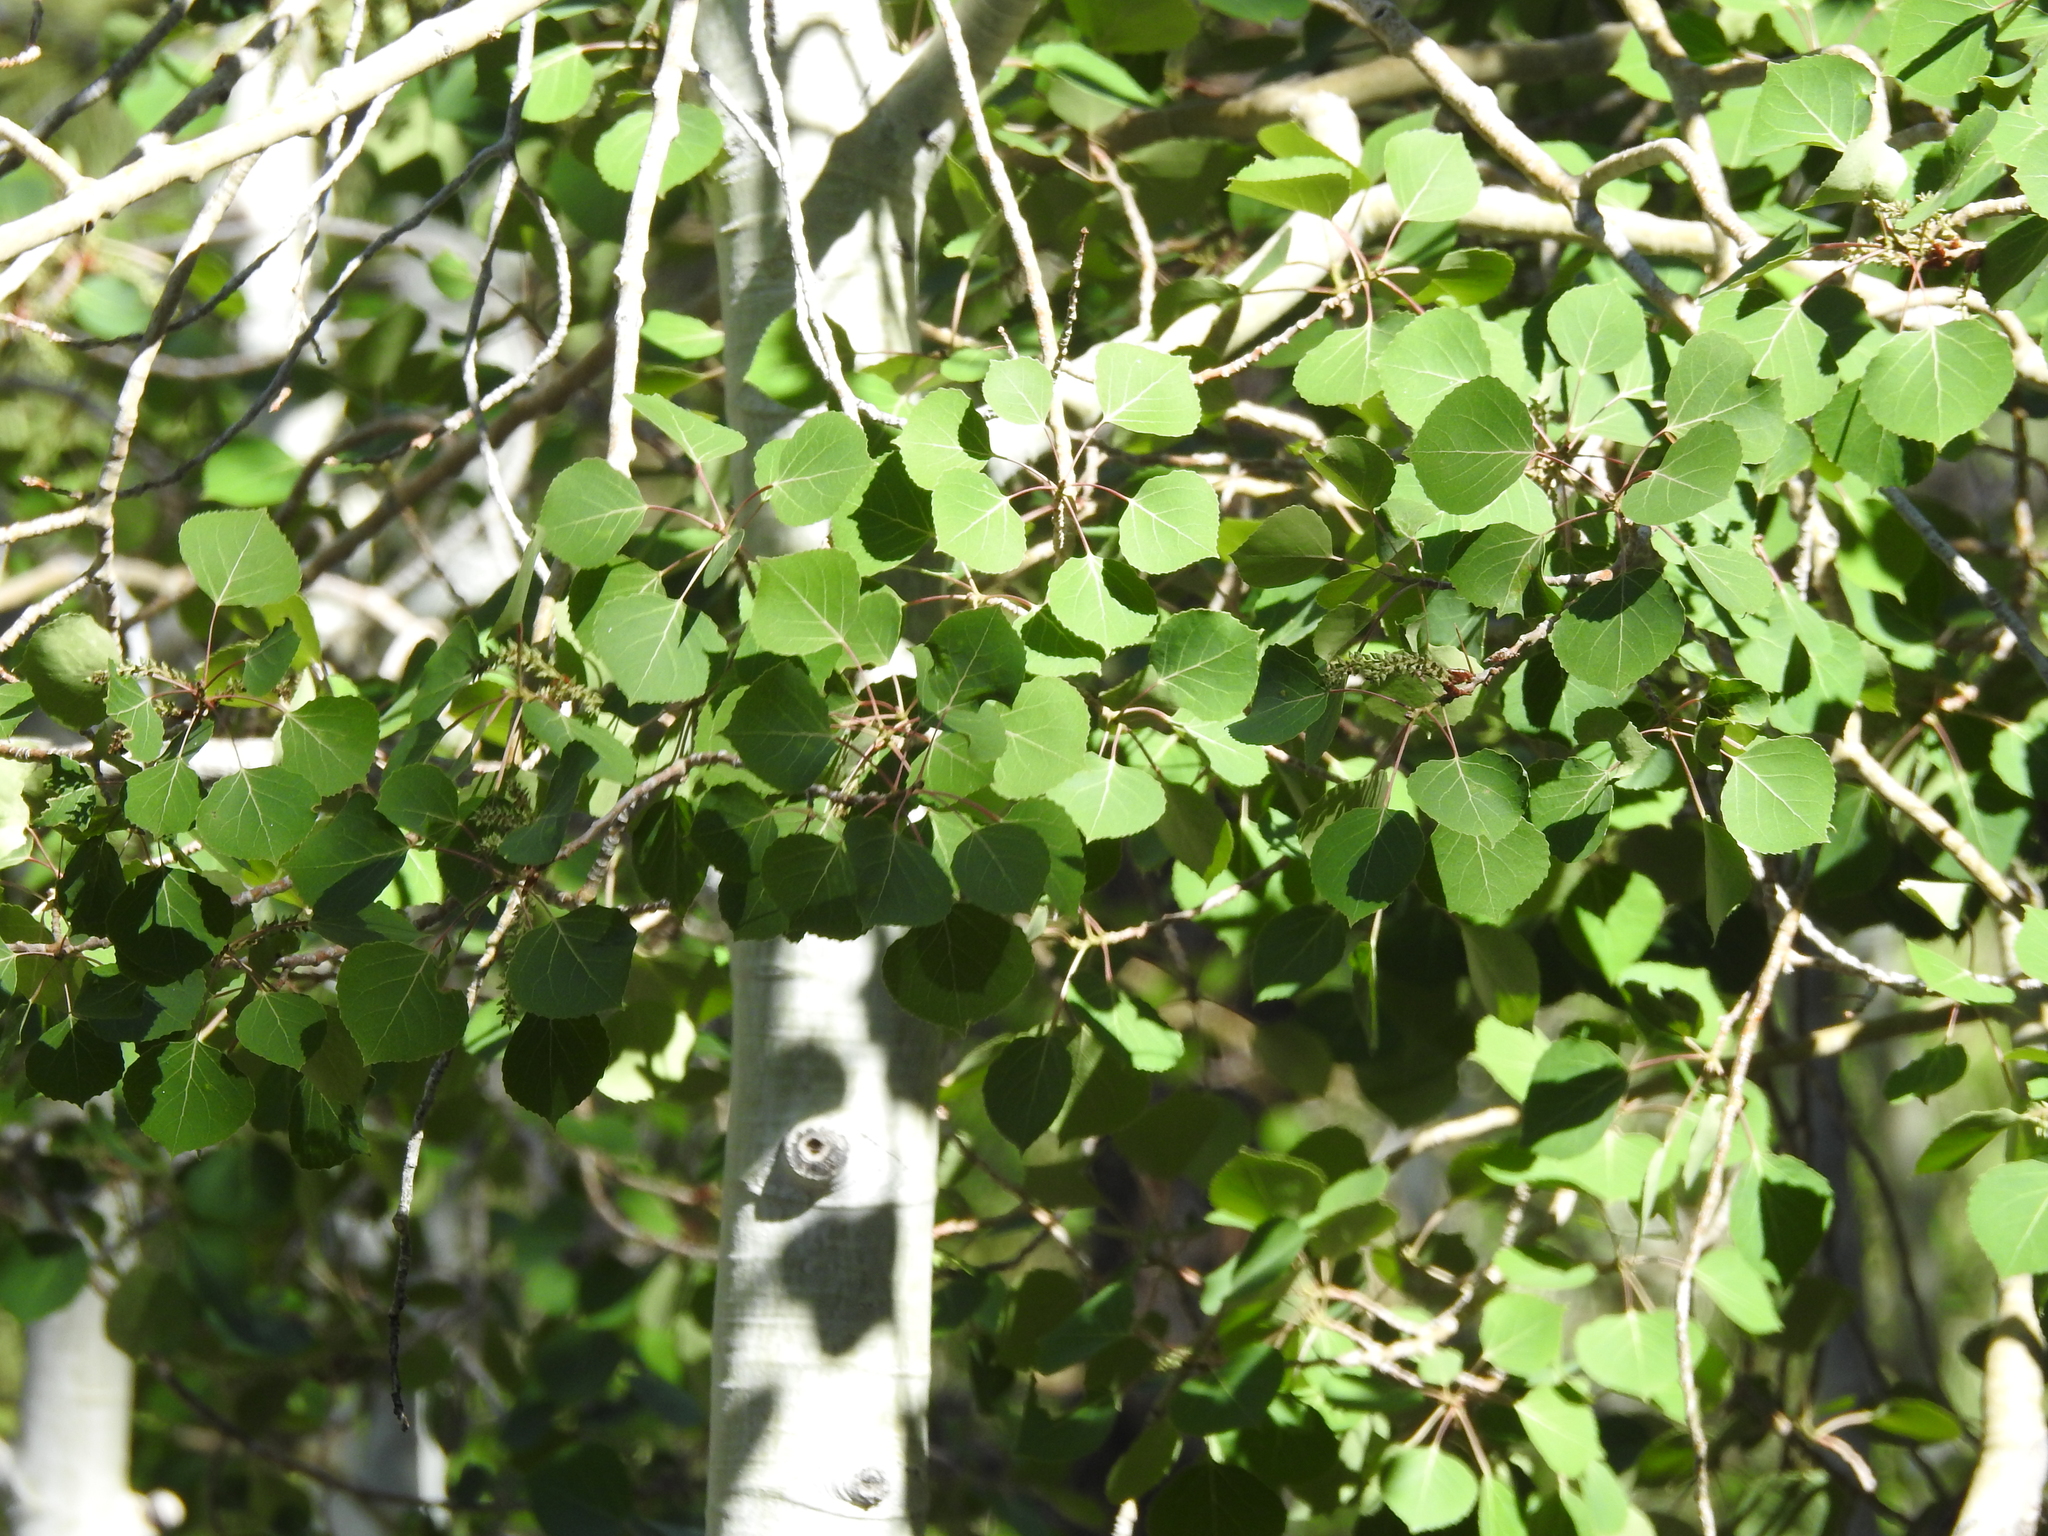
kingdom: Plantae
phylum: Tracheophyta
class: Magnoliopsida
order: Malpighiales
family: Salicaceae
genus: Populus
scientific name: Populus tremuloides
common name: Quaking aspen
